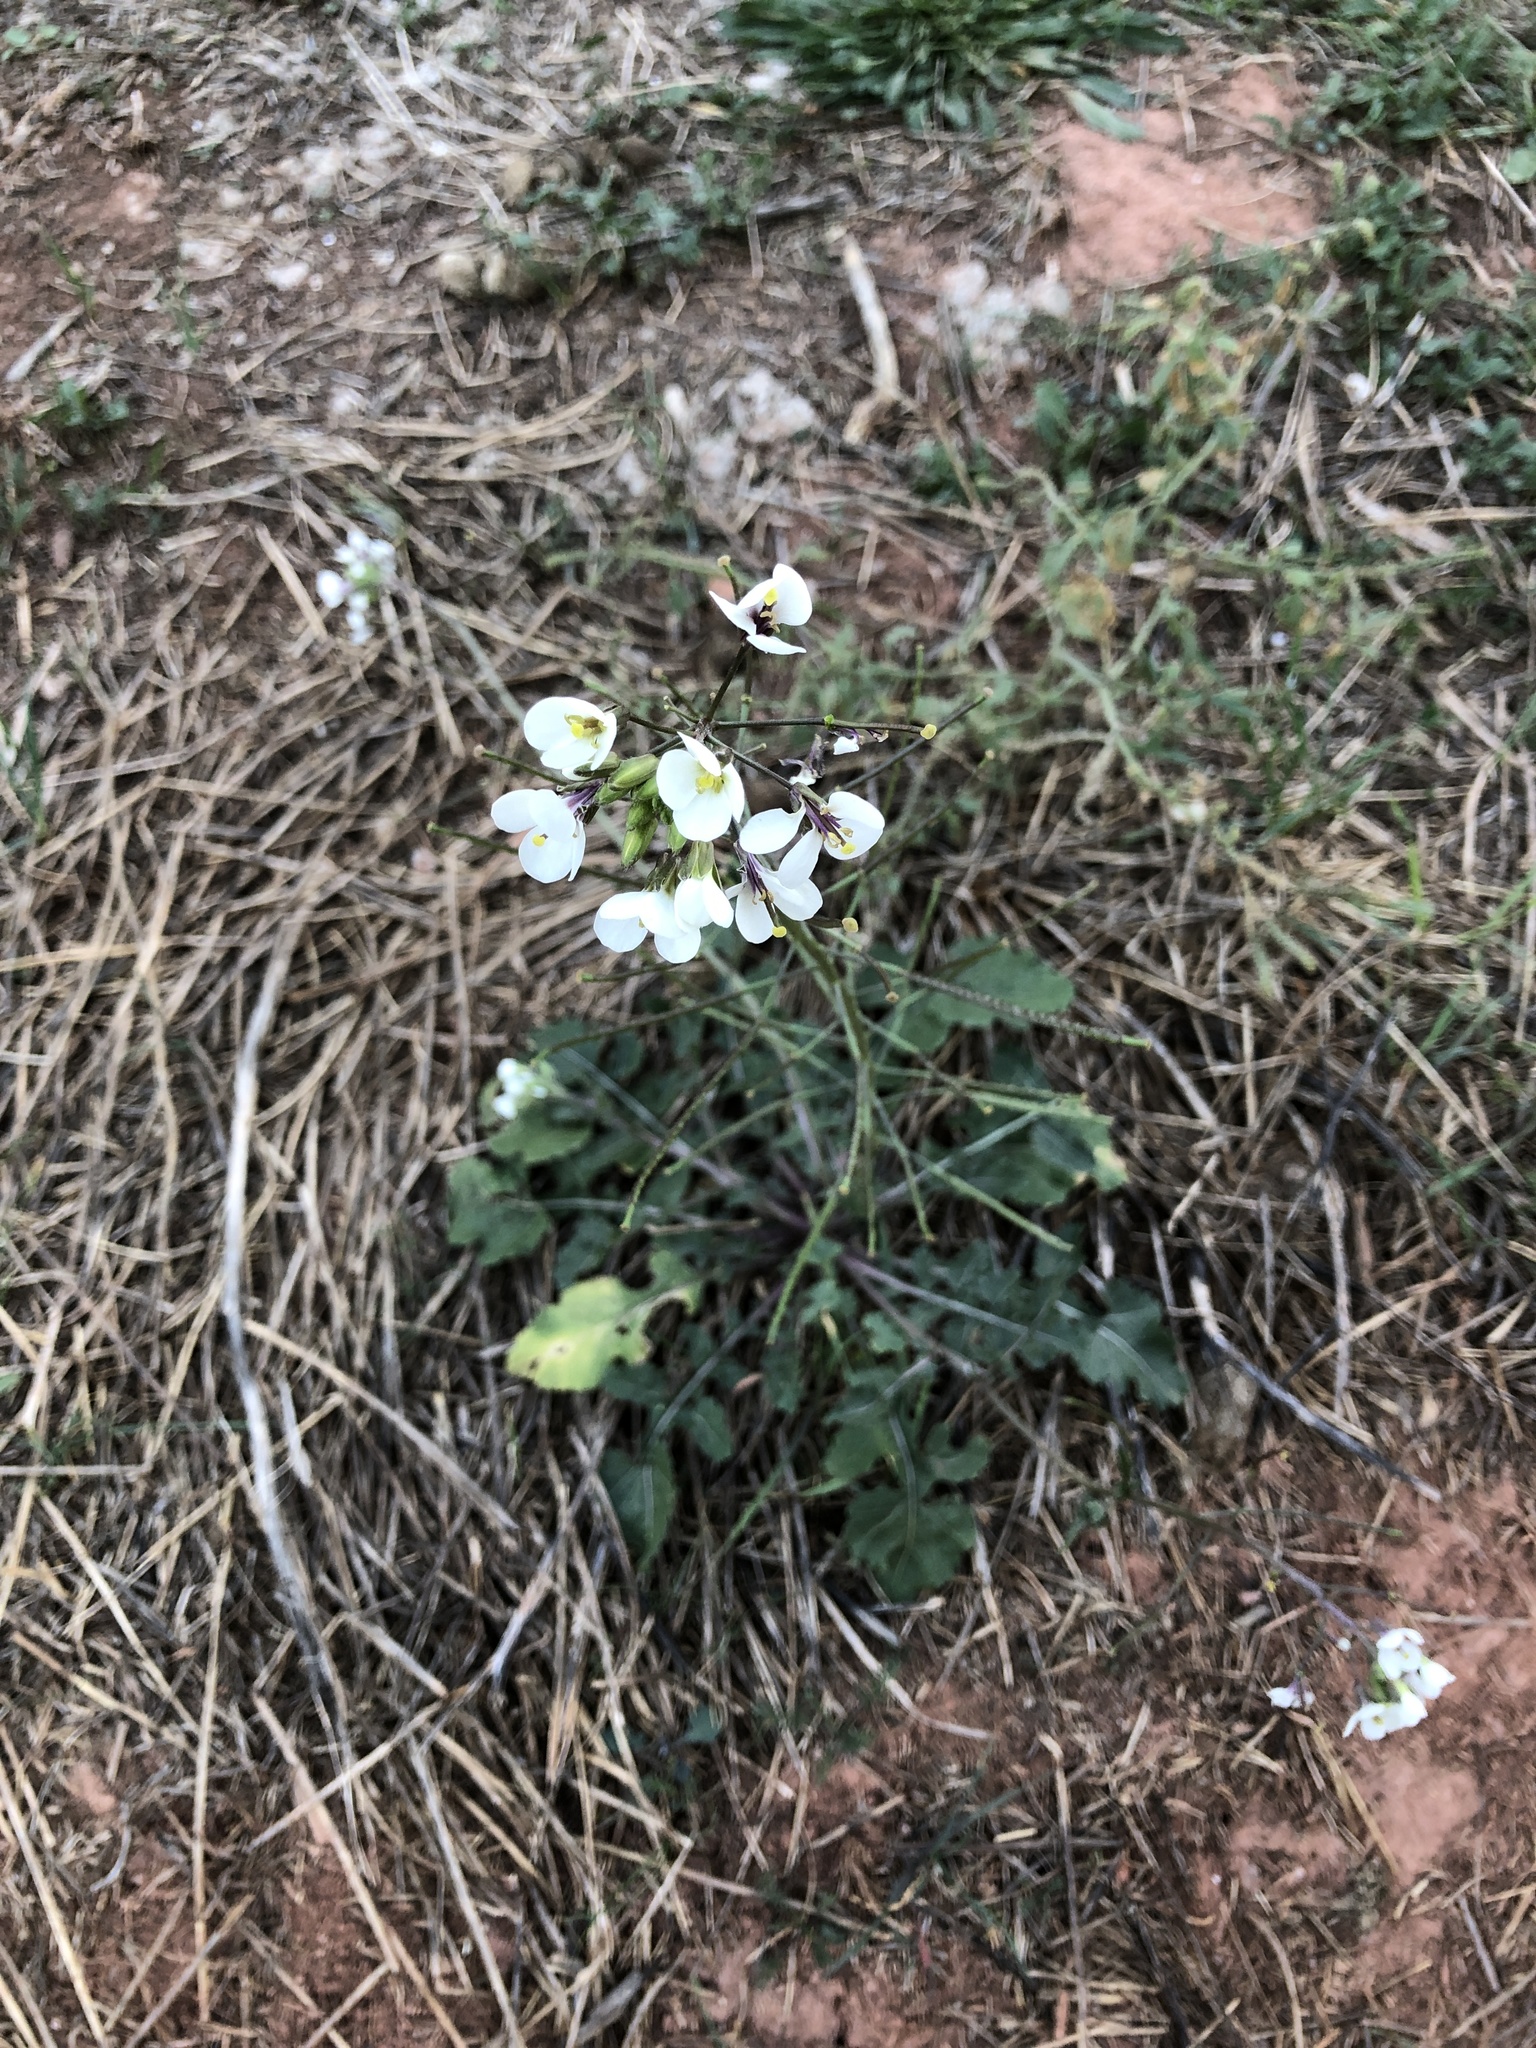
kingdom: Plantae
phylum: Tracheophyta
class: Magnoliopsida
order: Brassicales
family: Brassicaceae
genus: Diplotaxis
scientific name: Diplotaxis erucoides
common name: White rocket
